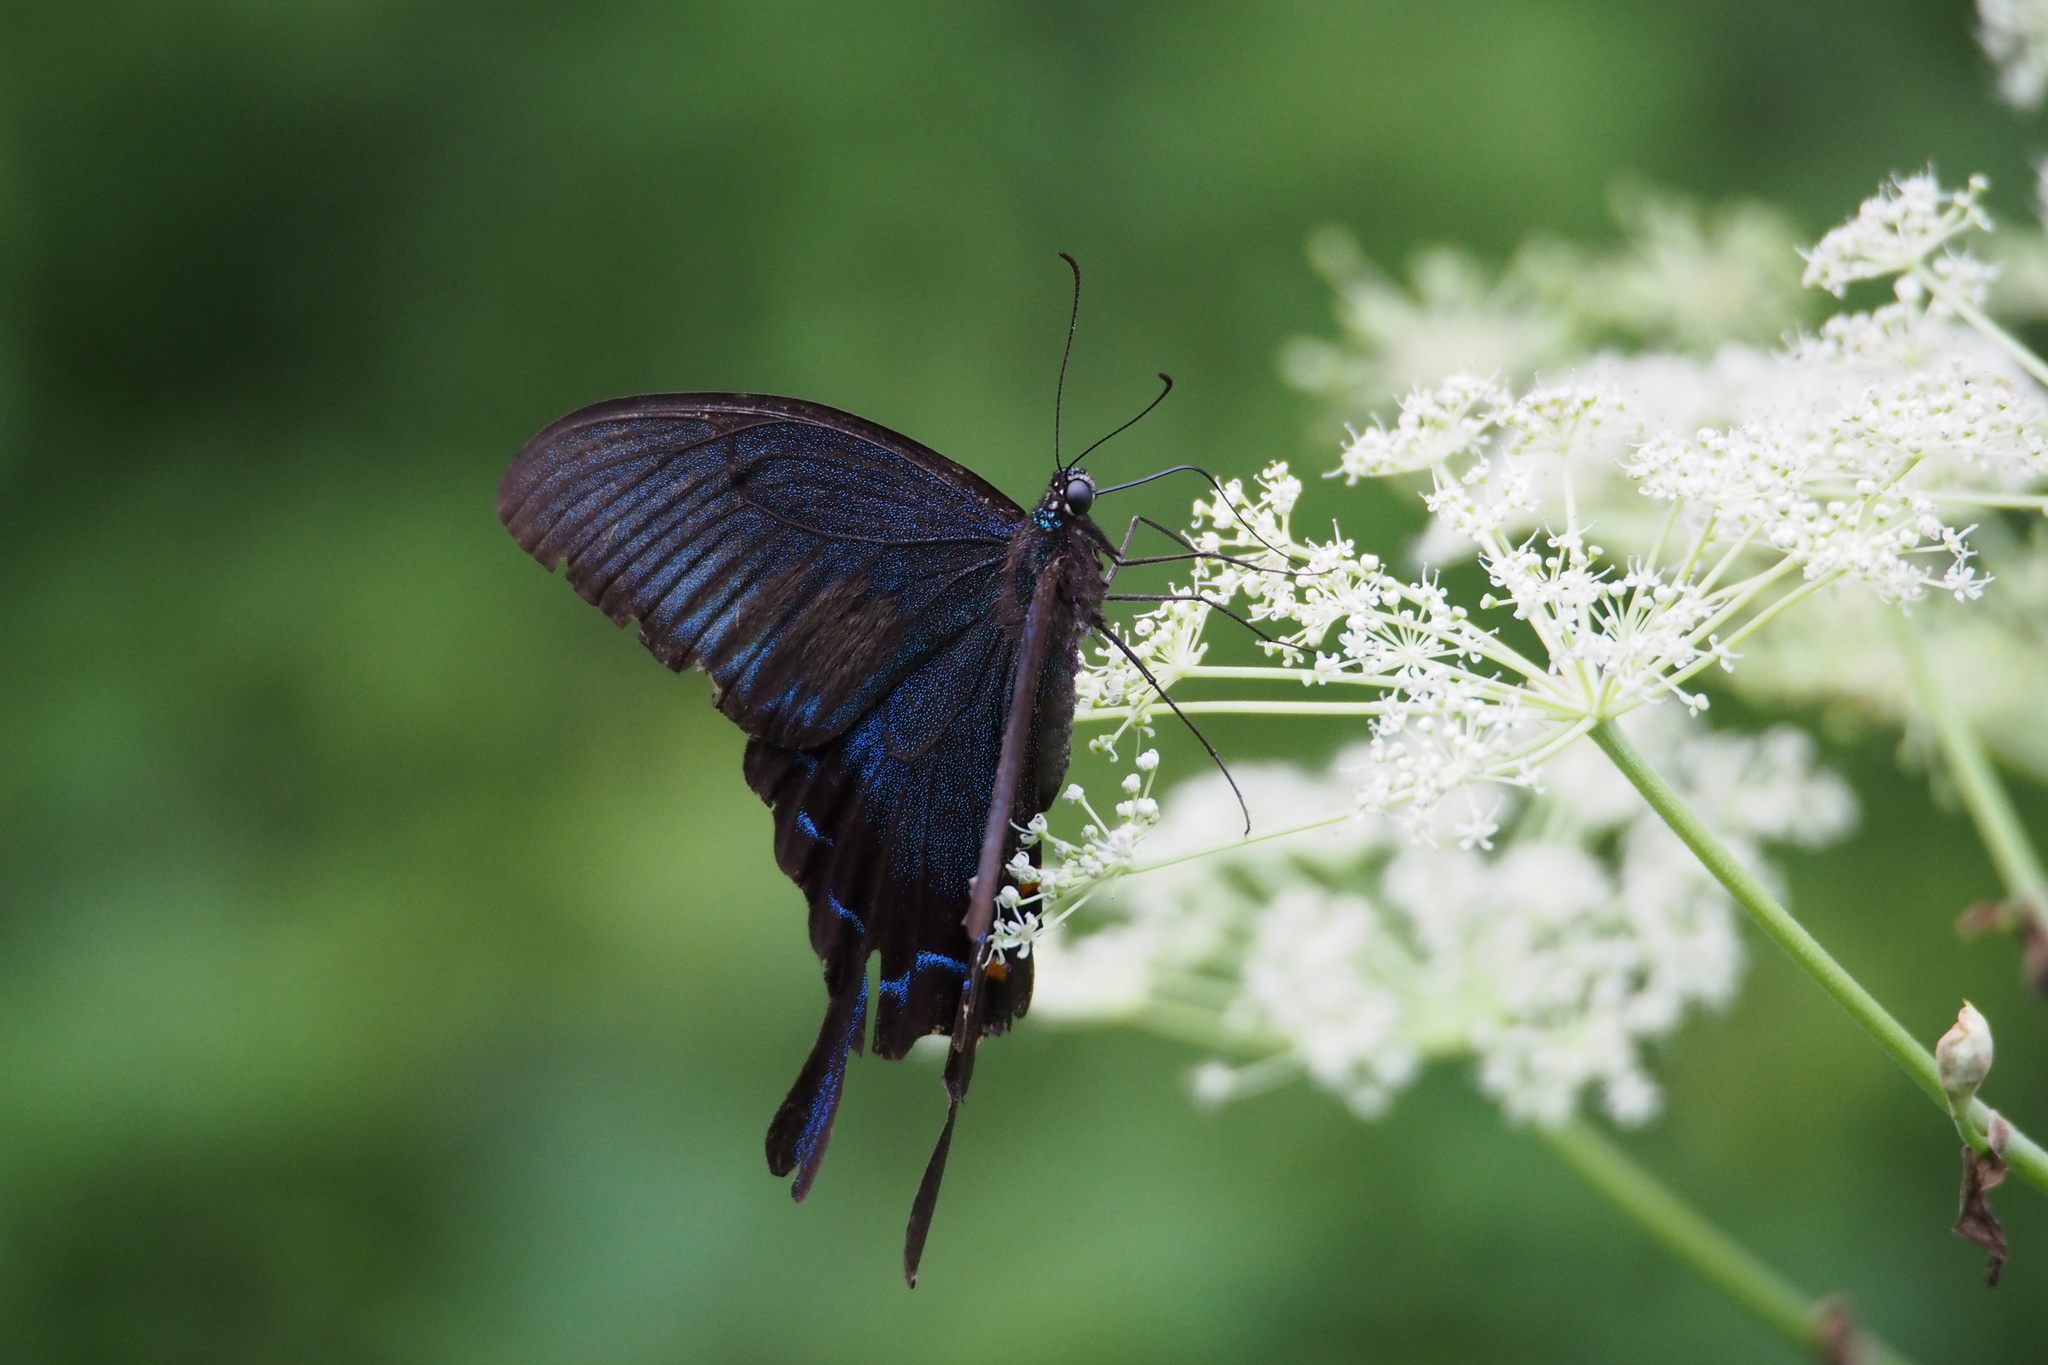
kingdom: Animalia
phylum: Arthropoda
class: Insecta
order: Lepidoptera
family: Papilionidae
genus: Papilio
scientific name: Papilio dehaanii
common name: Japanese peacock swallowtail
